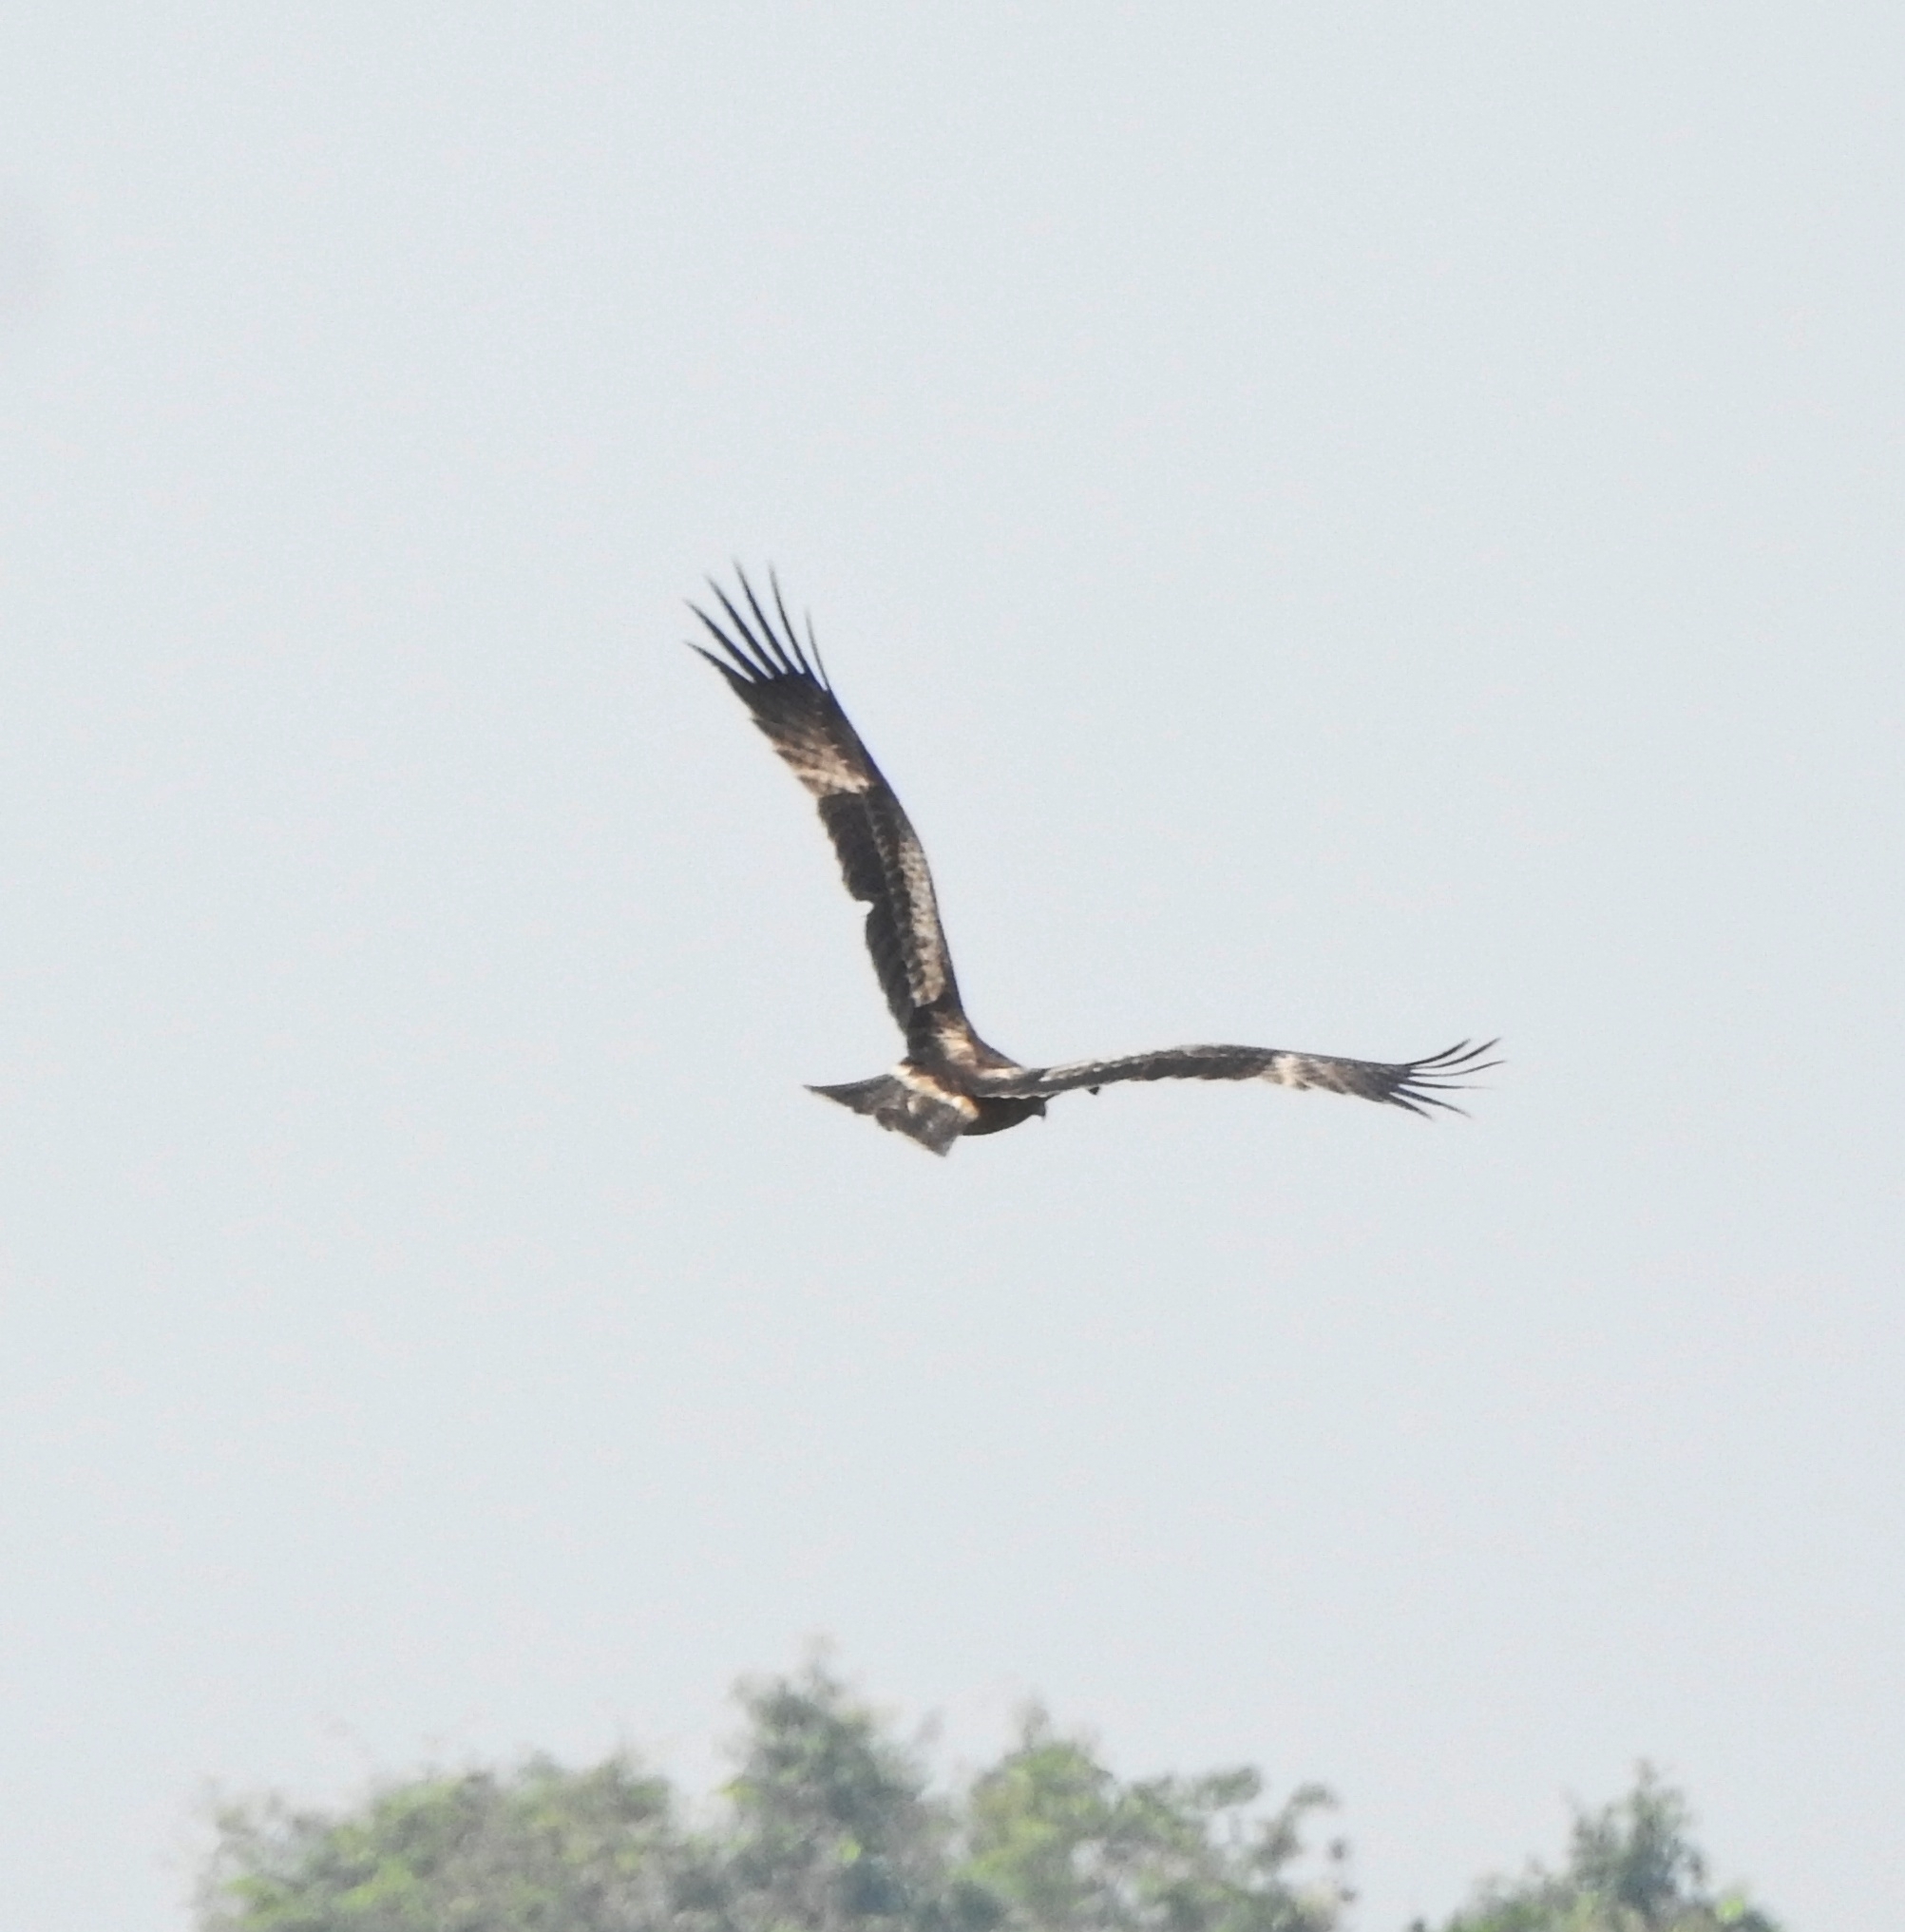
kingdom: Animalia
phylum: Chordata
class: Aves
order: Accipitriformes
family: Accipitridae
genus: Hieraaetus
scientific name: Hieraaetus pennatus
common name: Booted eagle
